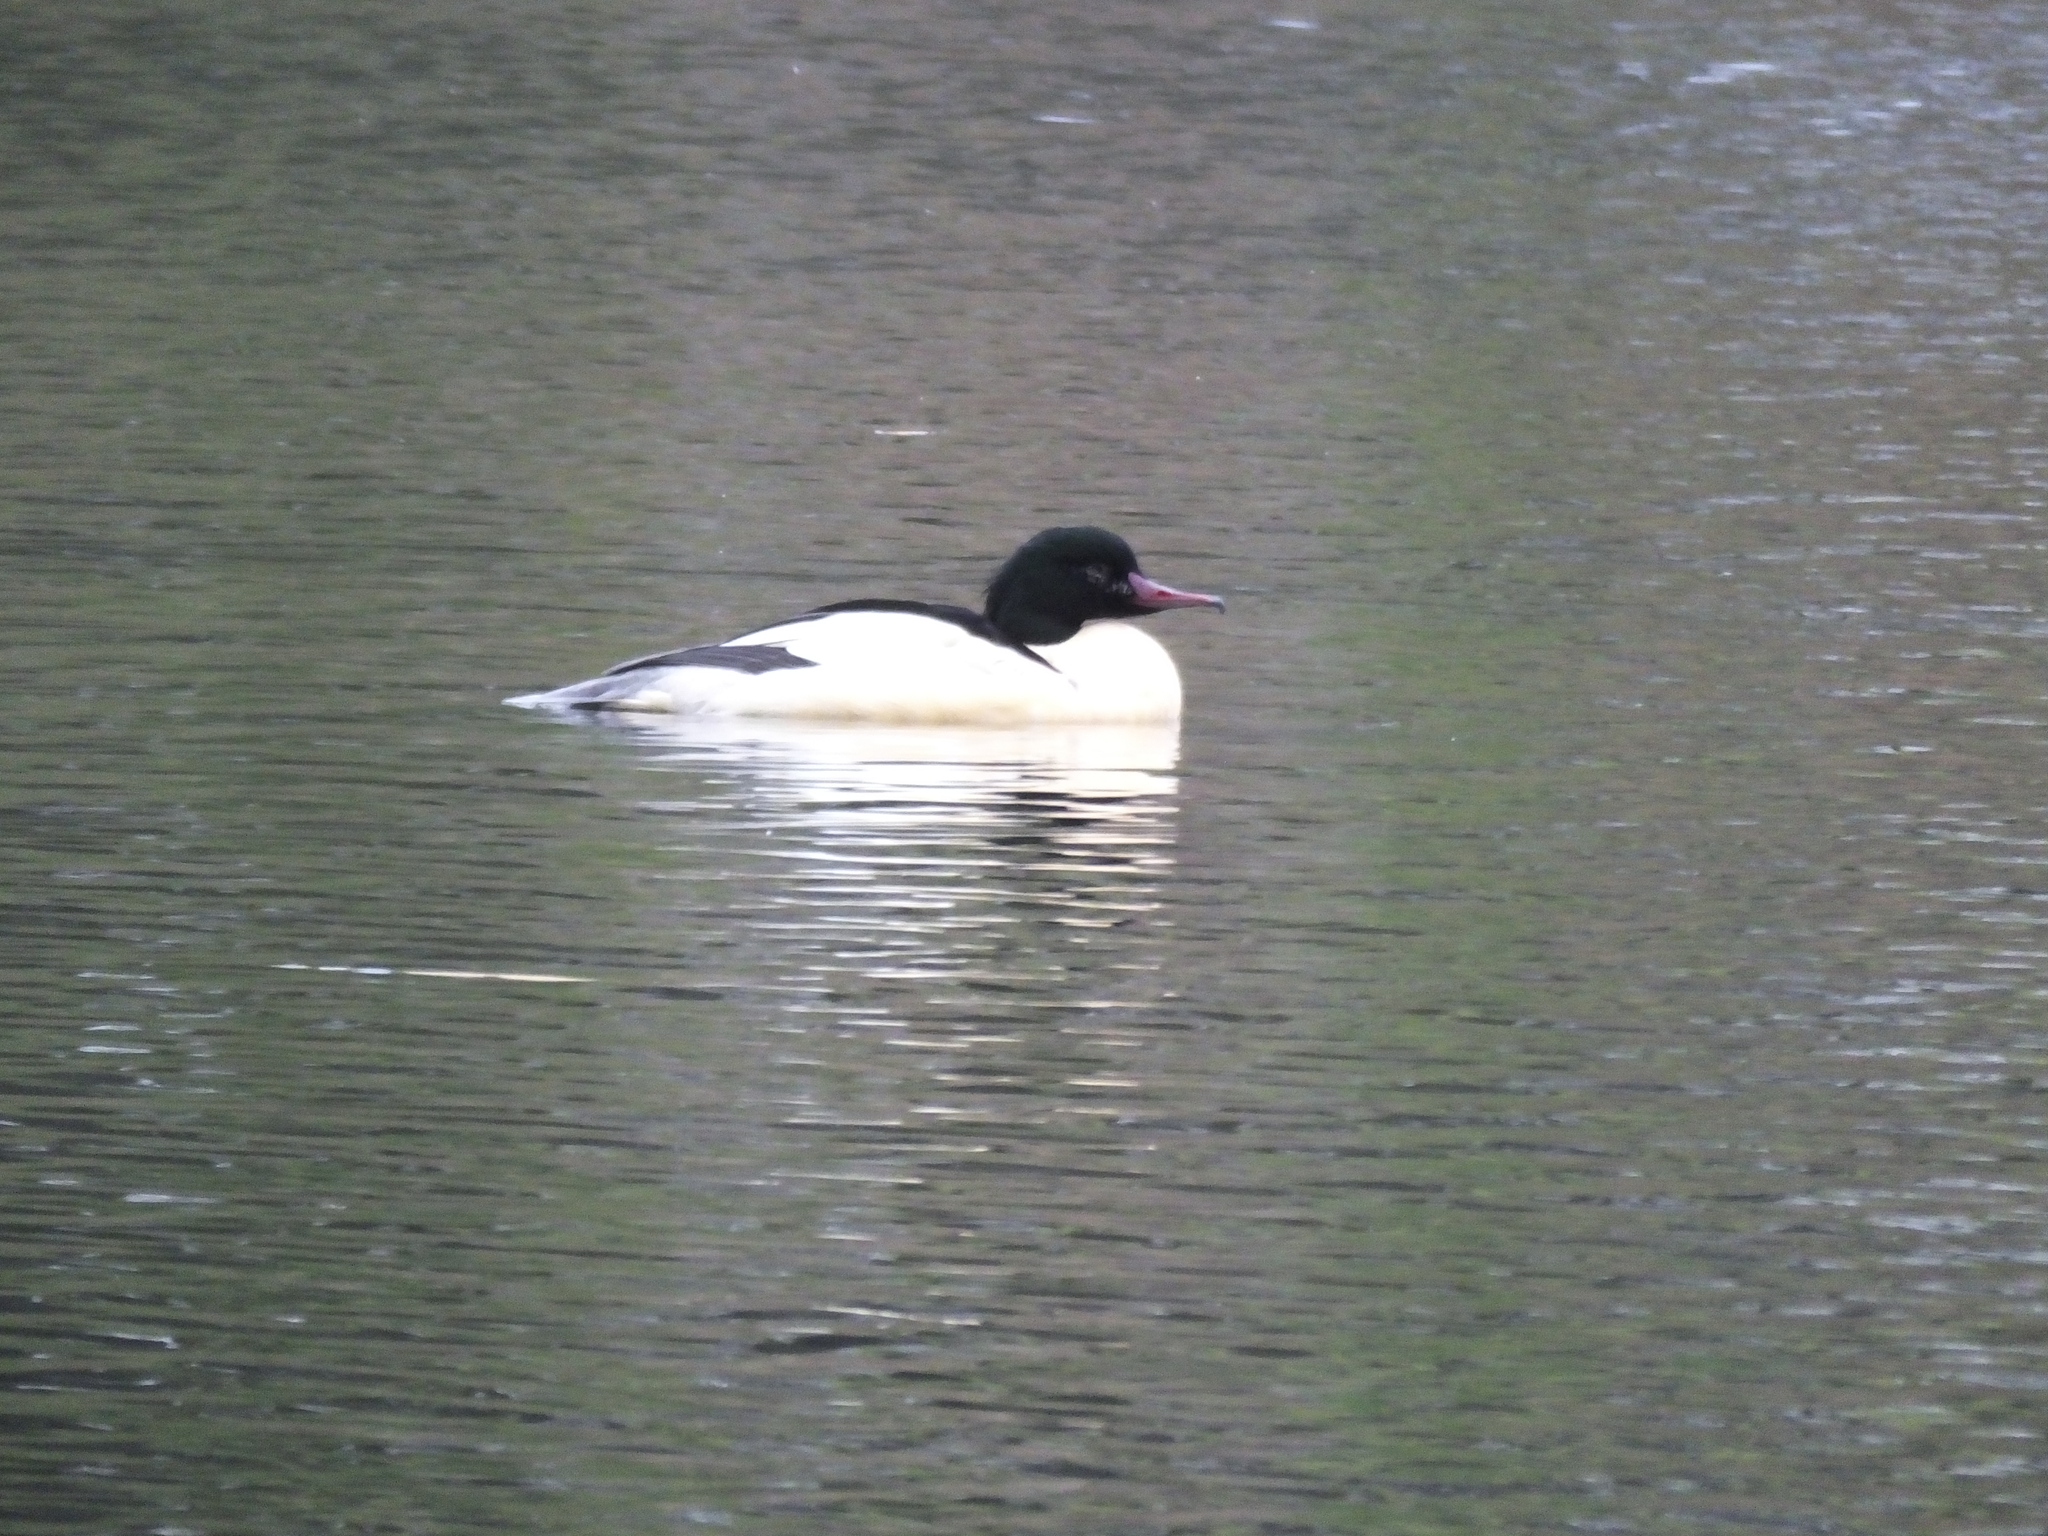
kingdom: Animalia
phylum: Chordata
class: Aves
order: Anseriformes
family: Anatidae
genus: Mergus
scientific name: Mergus merganser
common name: Common merganser
